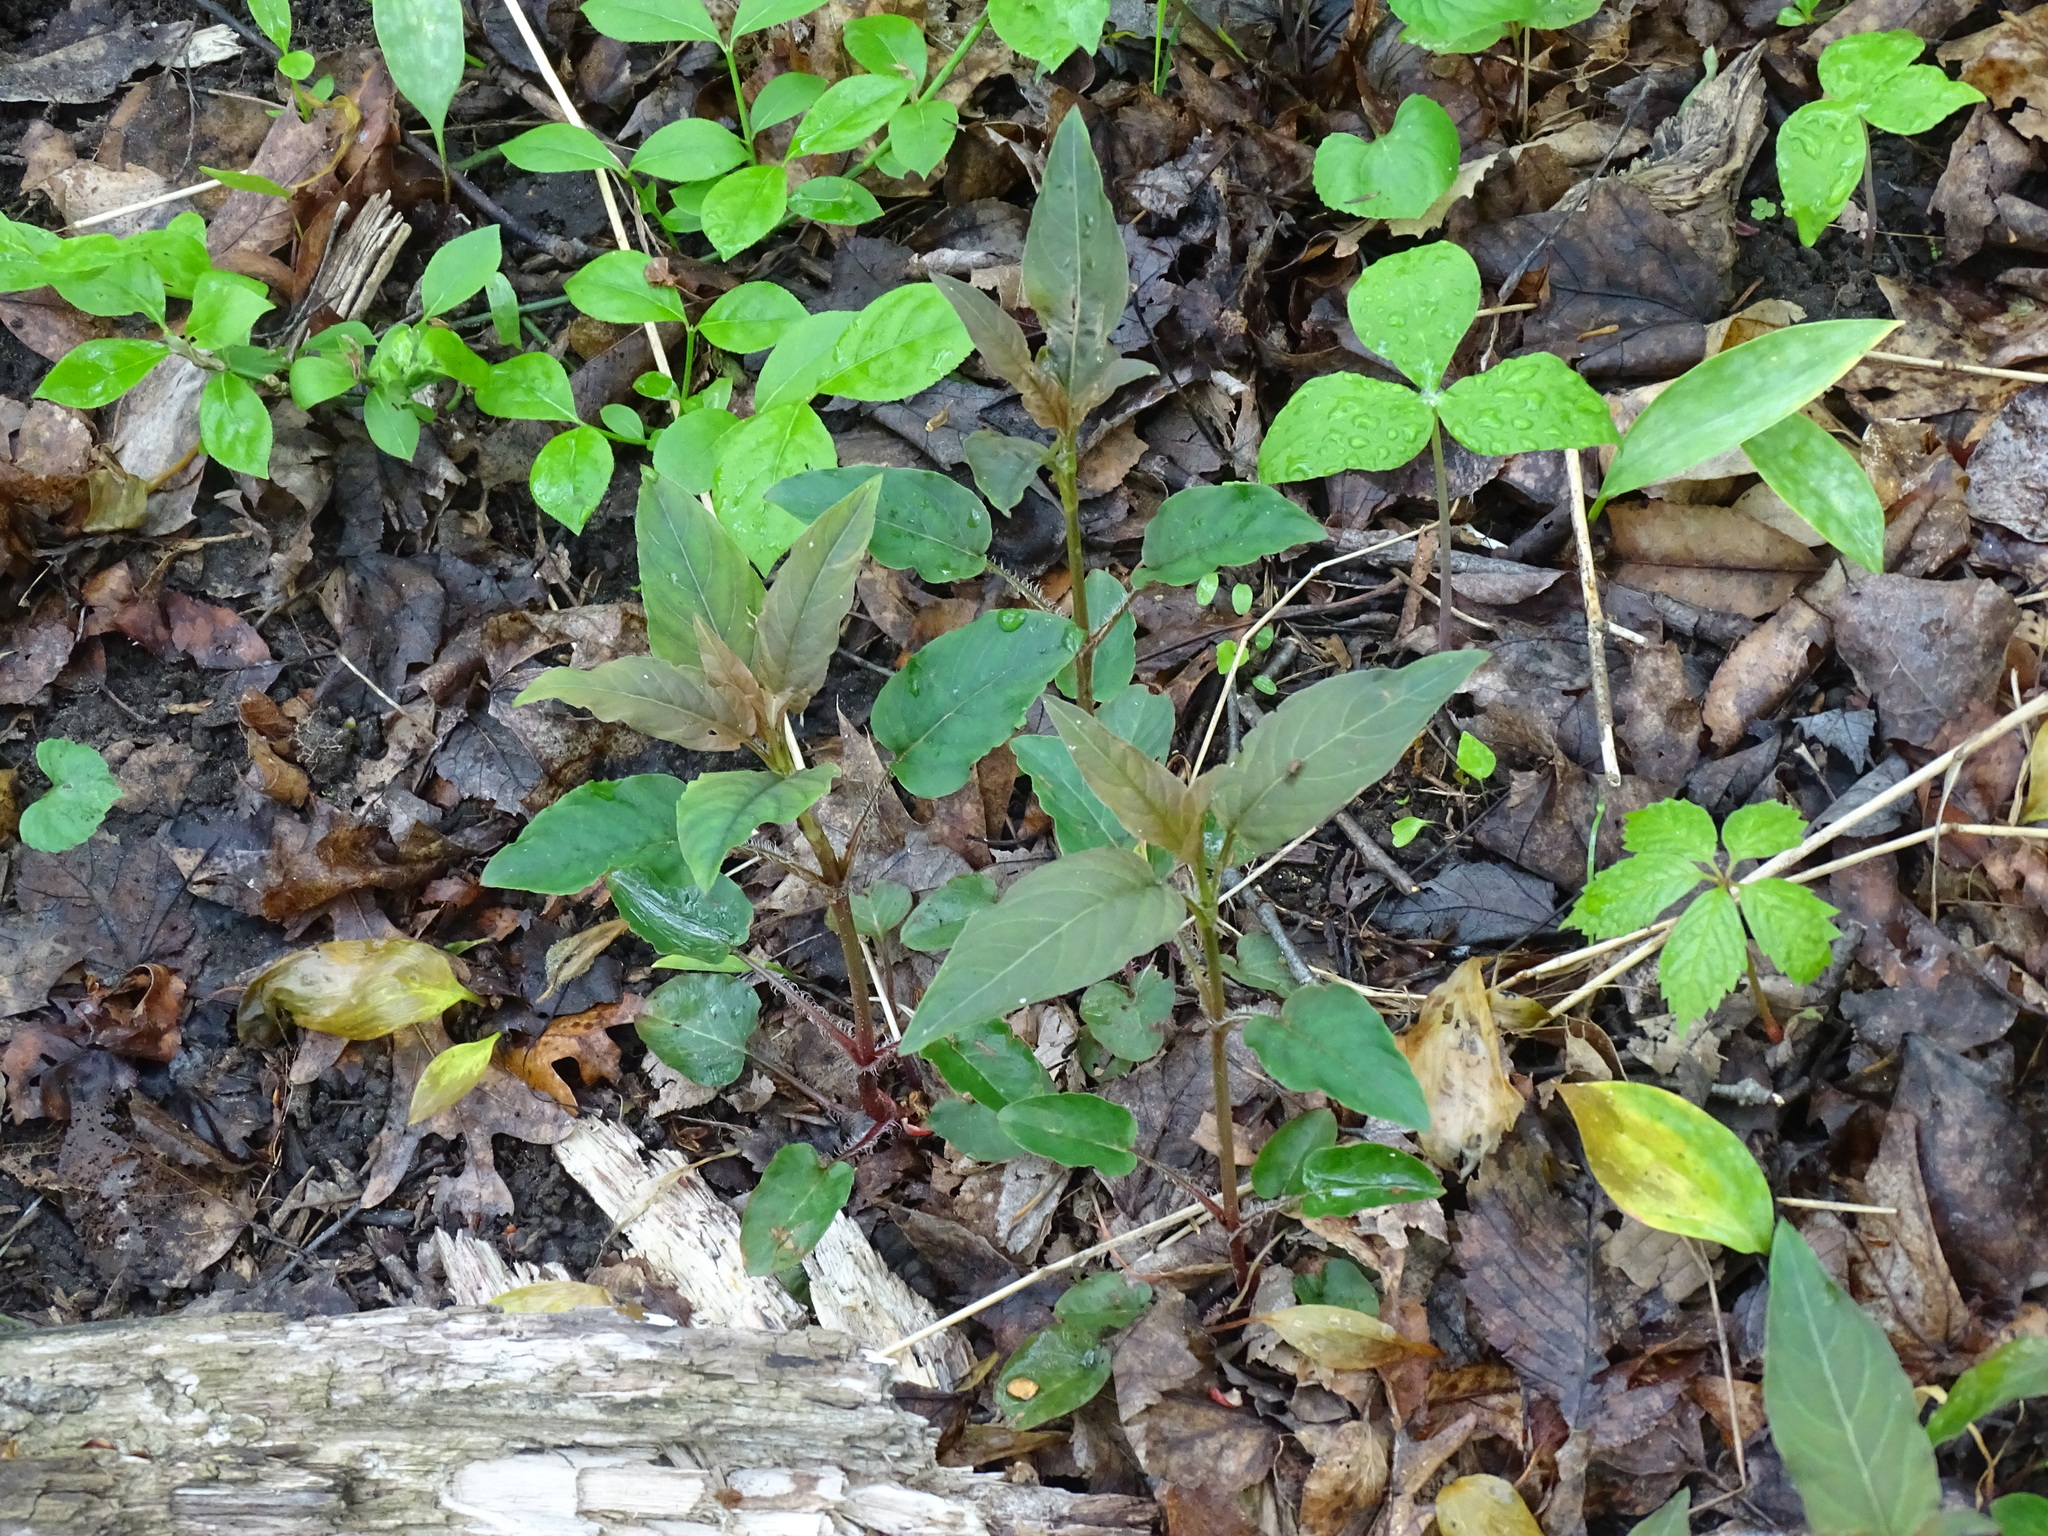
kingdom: Plantae
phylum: Tracheophyta
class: Magnoliopsida
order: Ericales
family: Primulaceae
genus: Lysimachia
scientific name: Lysimachia ciliata
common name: Fringed loosestrife
